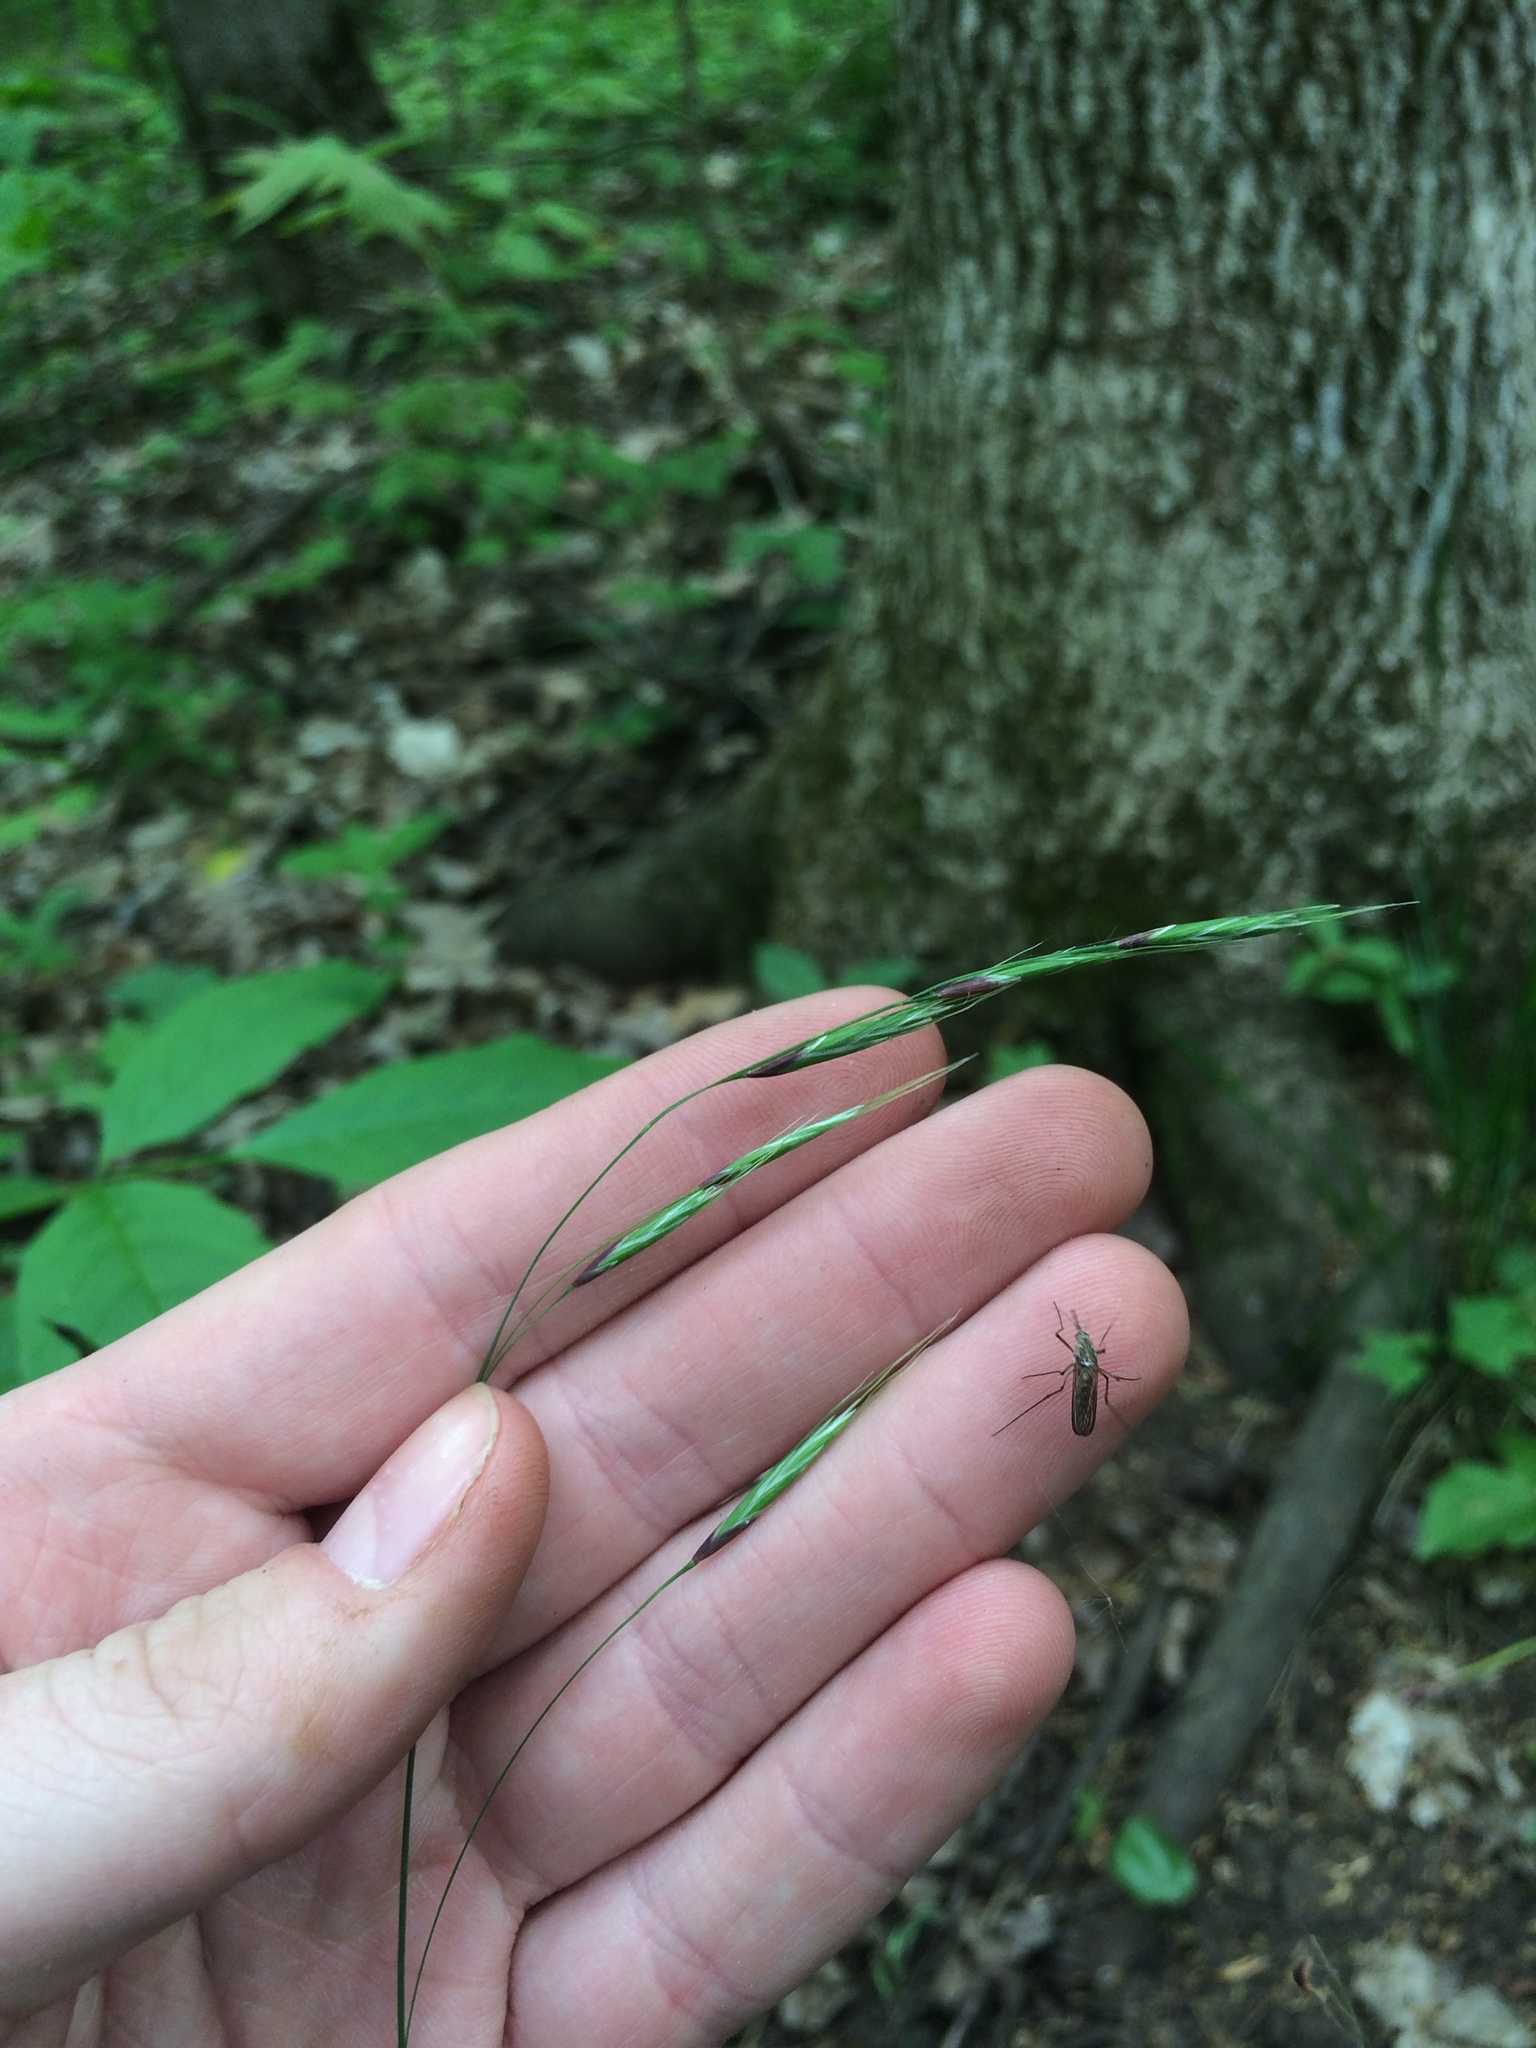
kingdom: Plantae
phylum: Tracheophyta
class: Liliopsida
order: Poales
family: Poaceae
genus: Schizachne
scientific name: Schizachne purpurascens
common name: False melic
